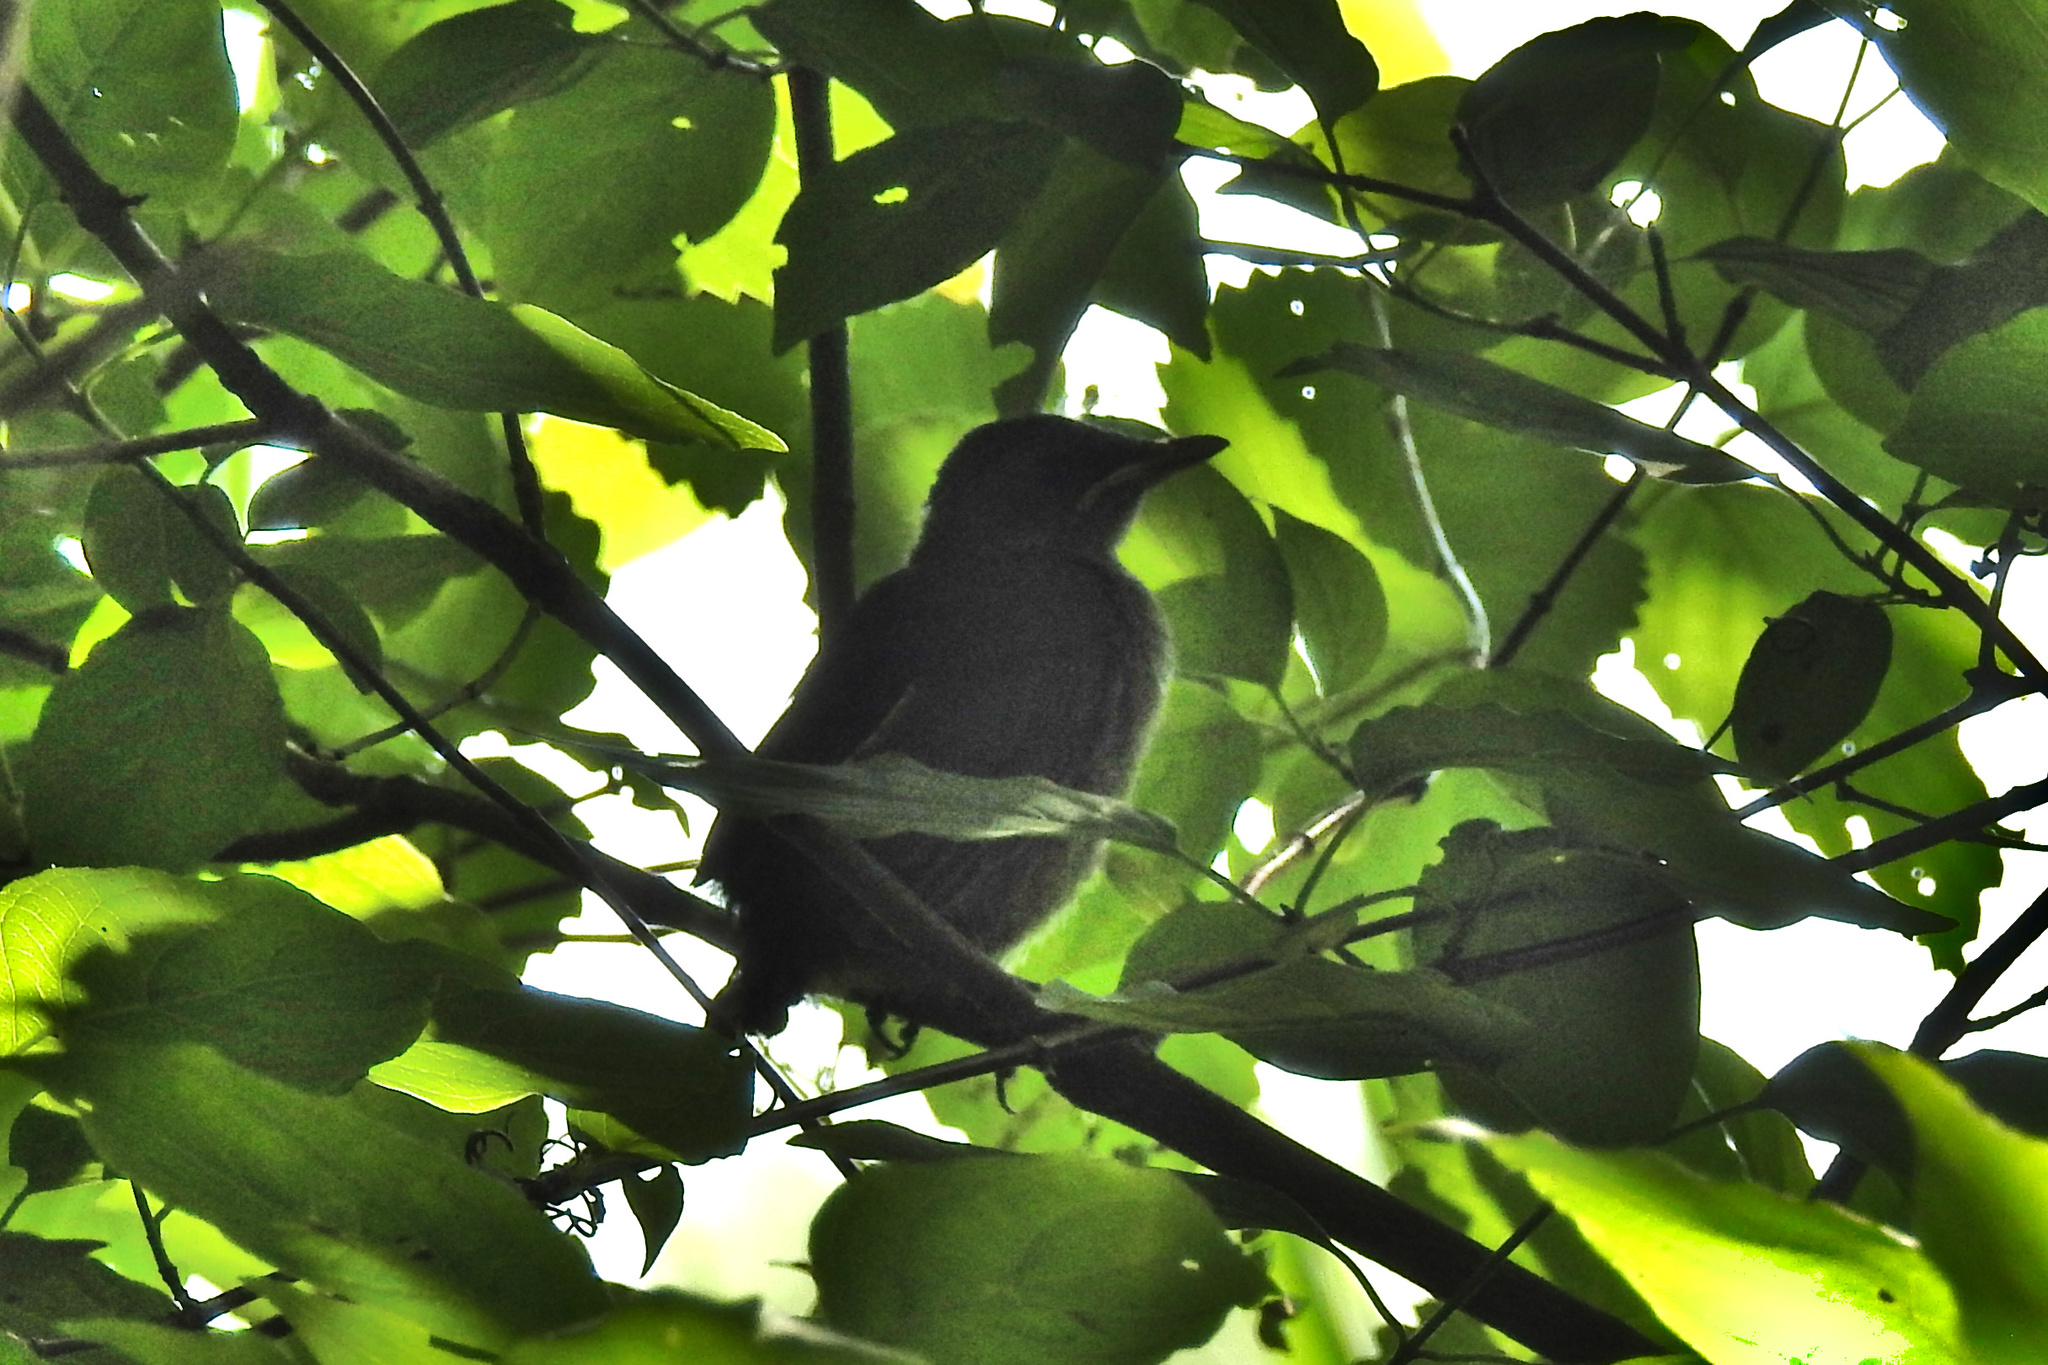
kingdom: Animalia
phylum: Chordata
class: Aves
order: Passeriformes
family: Mimidae
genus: Dumetella
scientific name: Dumetella carolinensis
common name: Gray catbird
